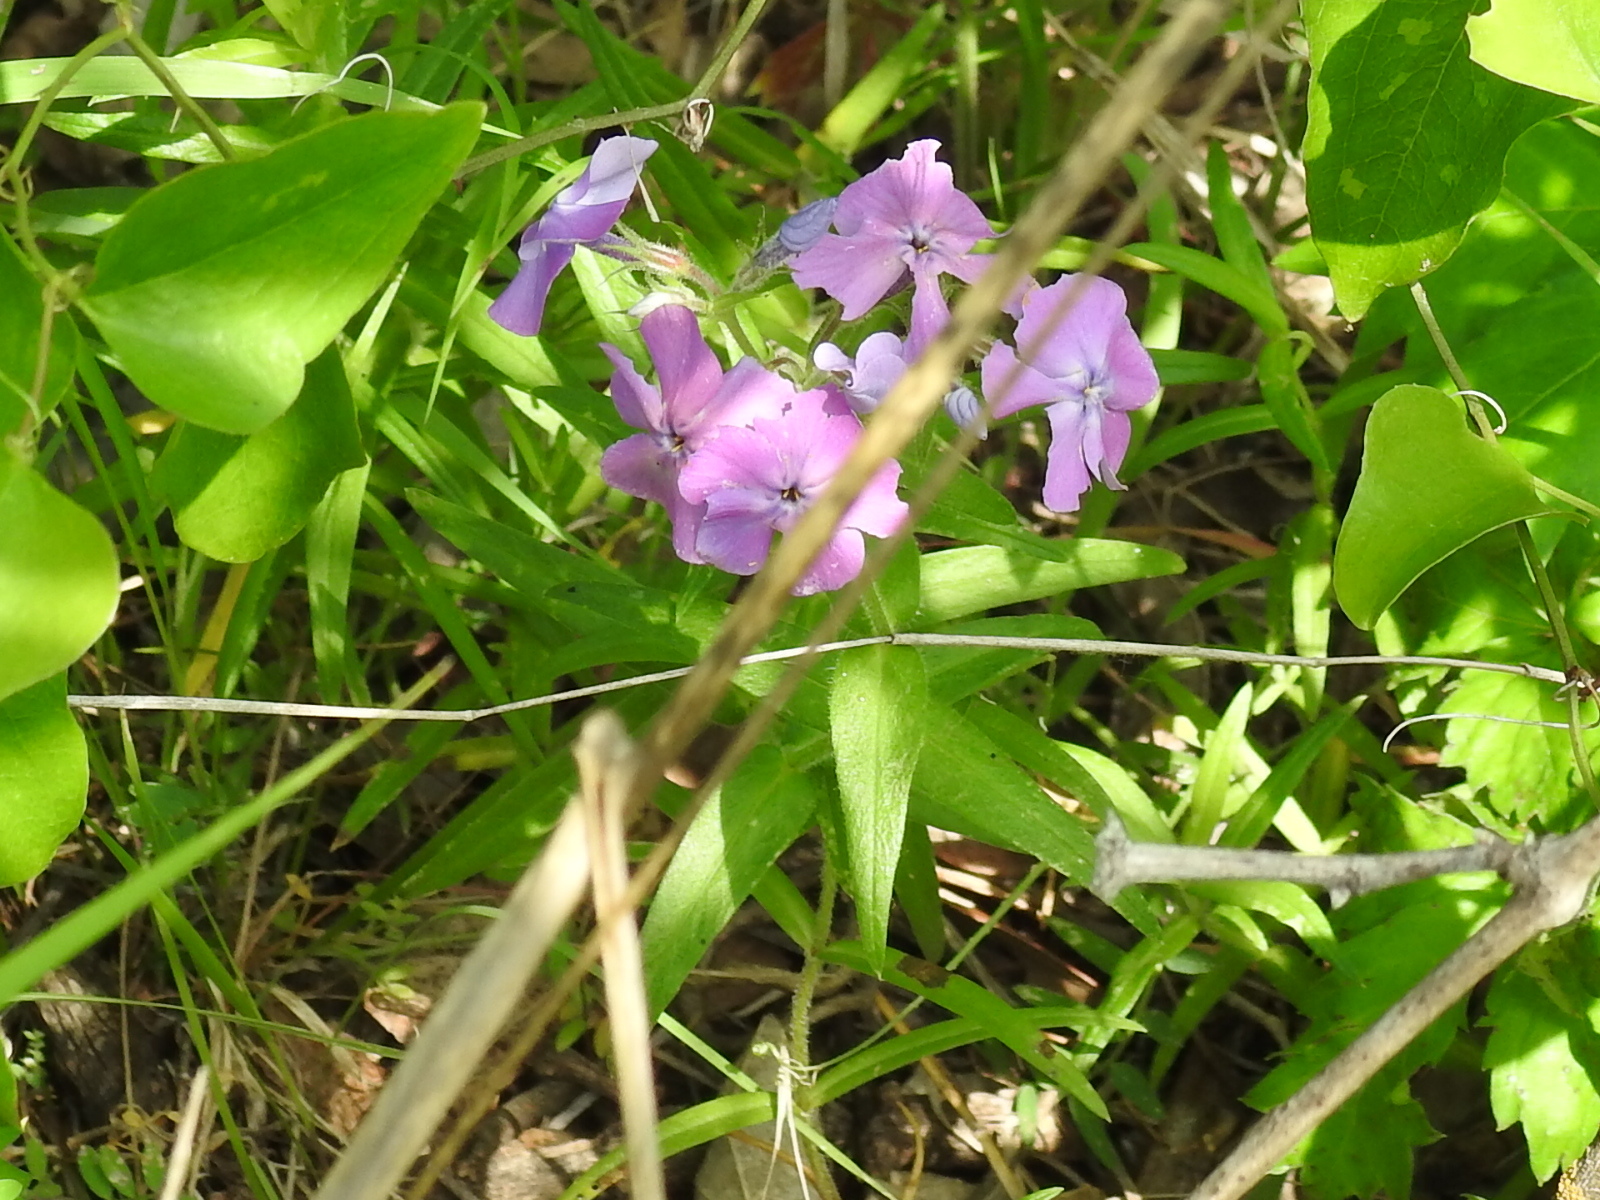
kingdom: Plantae
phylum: Tracheophyta
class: Magnoliopsida
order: Ericales
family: Polemoniaceae
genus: Phlox
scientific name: Phlox pilosa
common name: Prairie phlox
